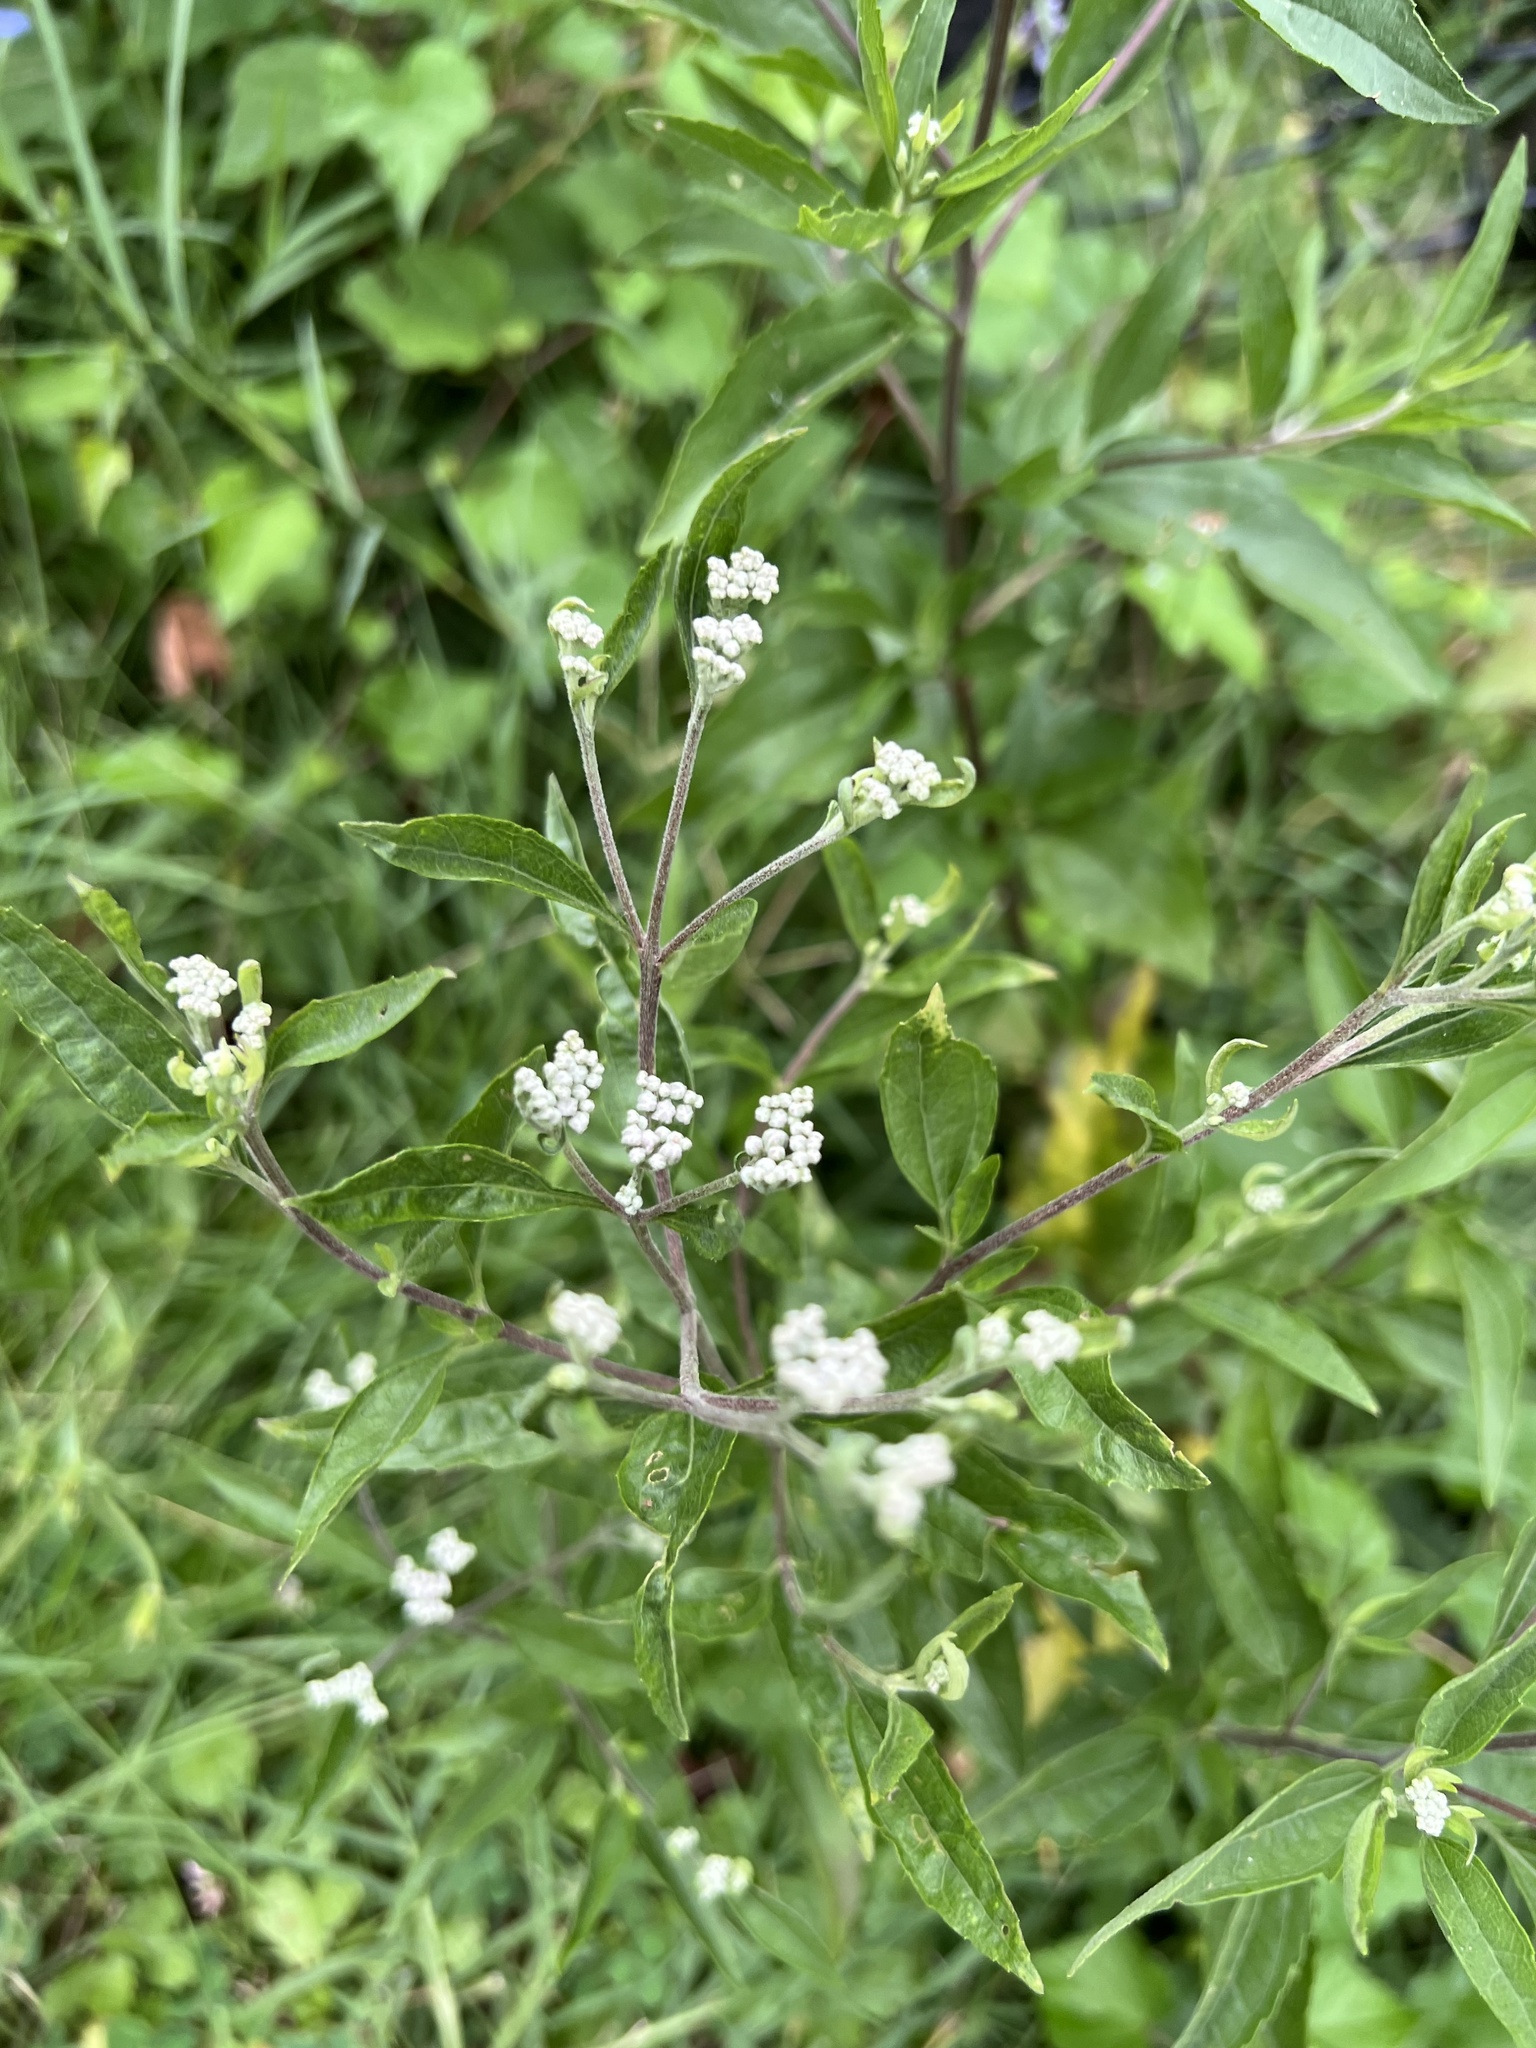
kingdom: Plantae
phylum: Tracheophyta
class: Magnoliopsida
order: Asterales
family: Asteraceae
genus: Eupatorium
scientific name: Eupatorium serotinum
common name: Late boneset
